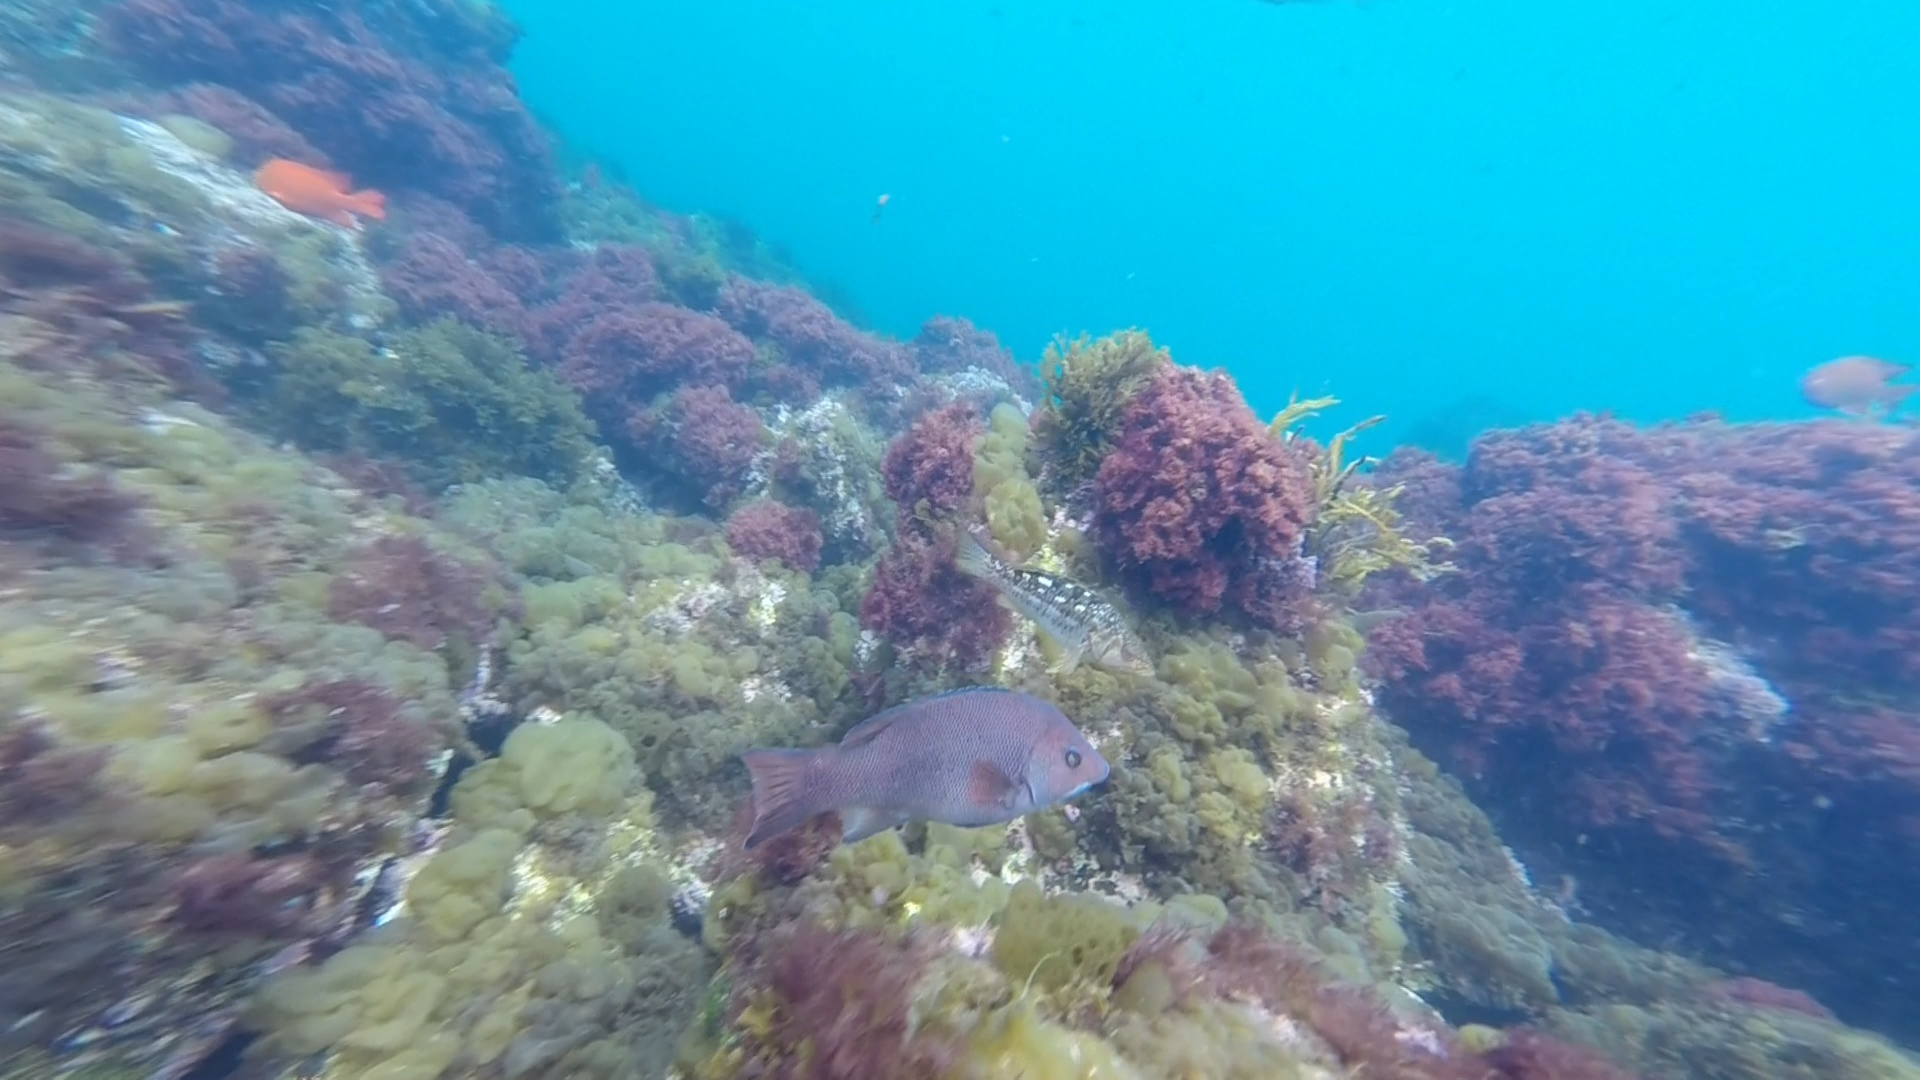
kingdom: Animalia
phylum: Chordata
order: Perciformes
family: Labridae
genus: Semicossyphus
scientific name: Semicossyphus pulcher
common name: California sheephead
